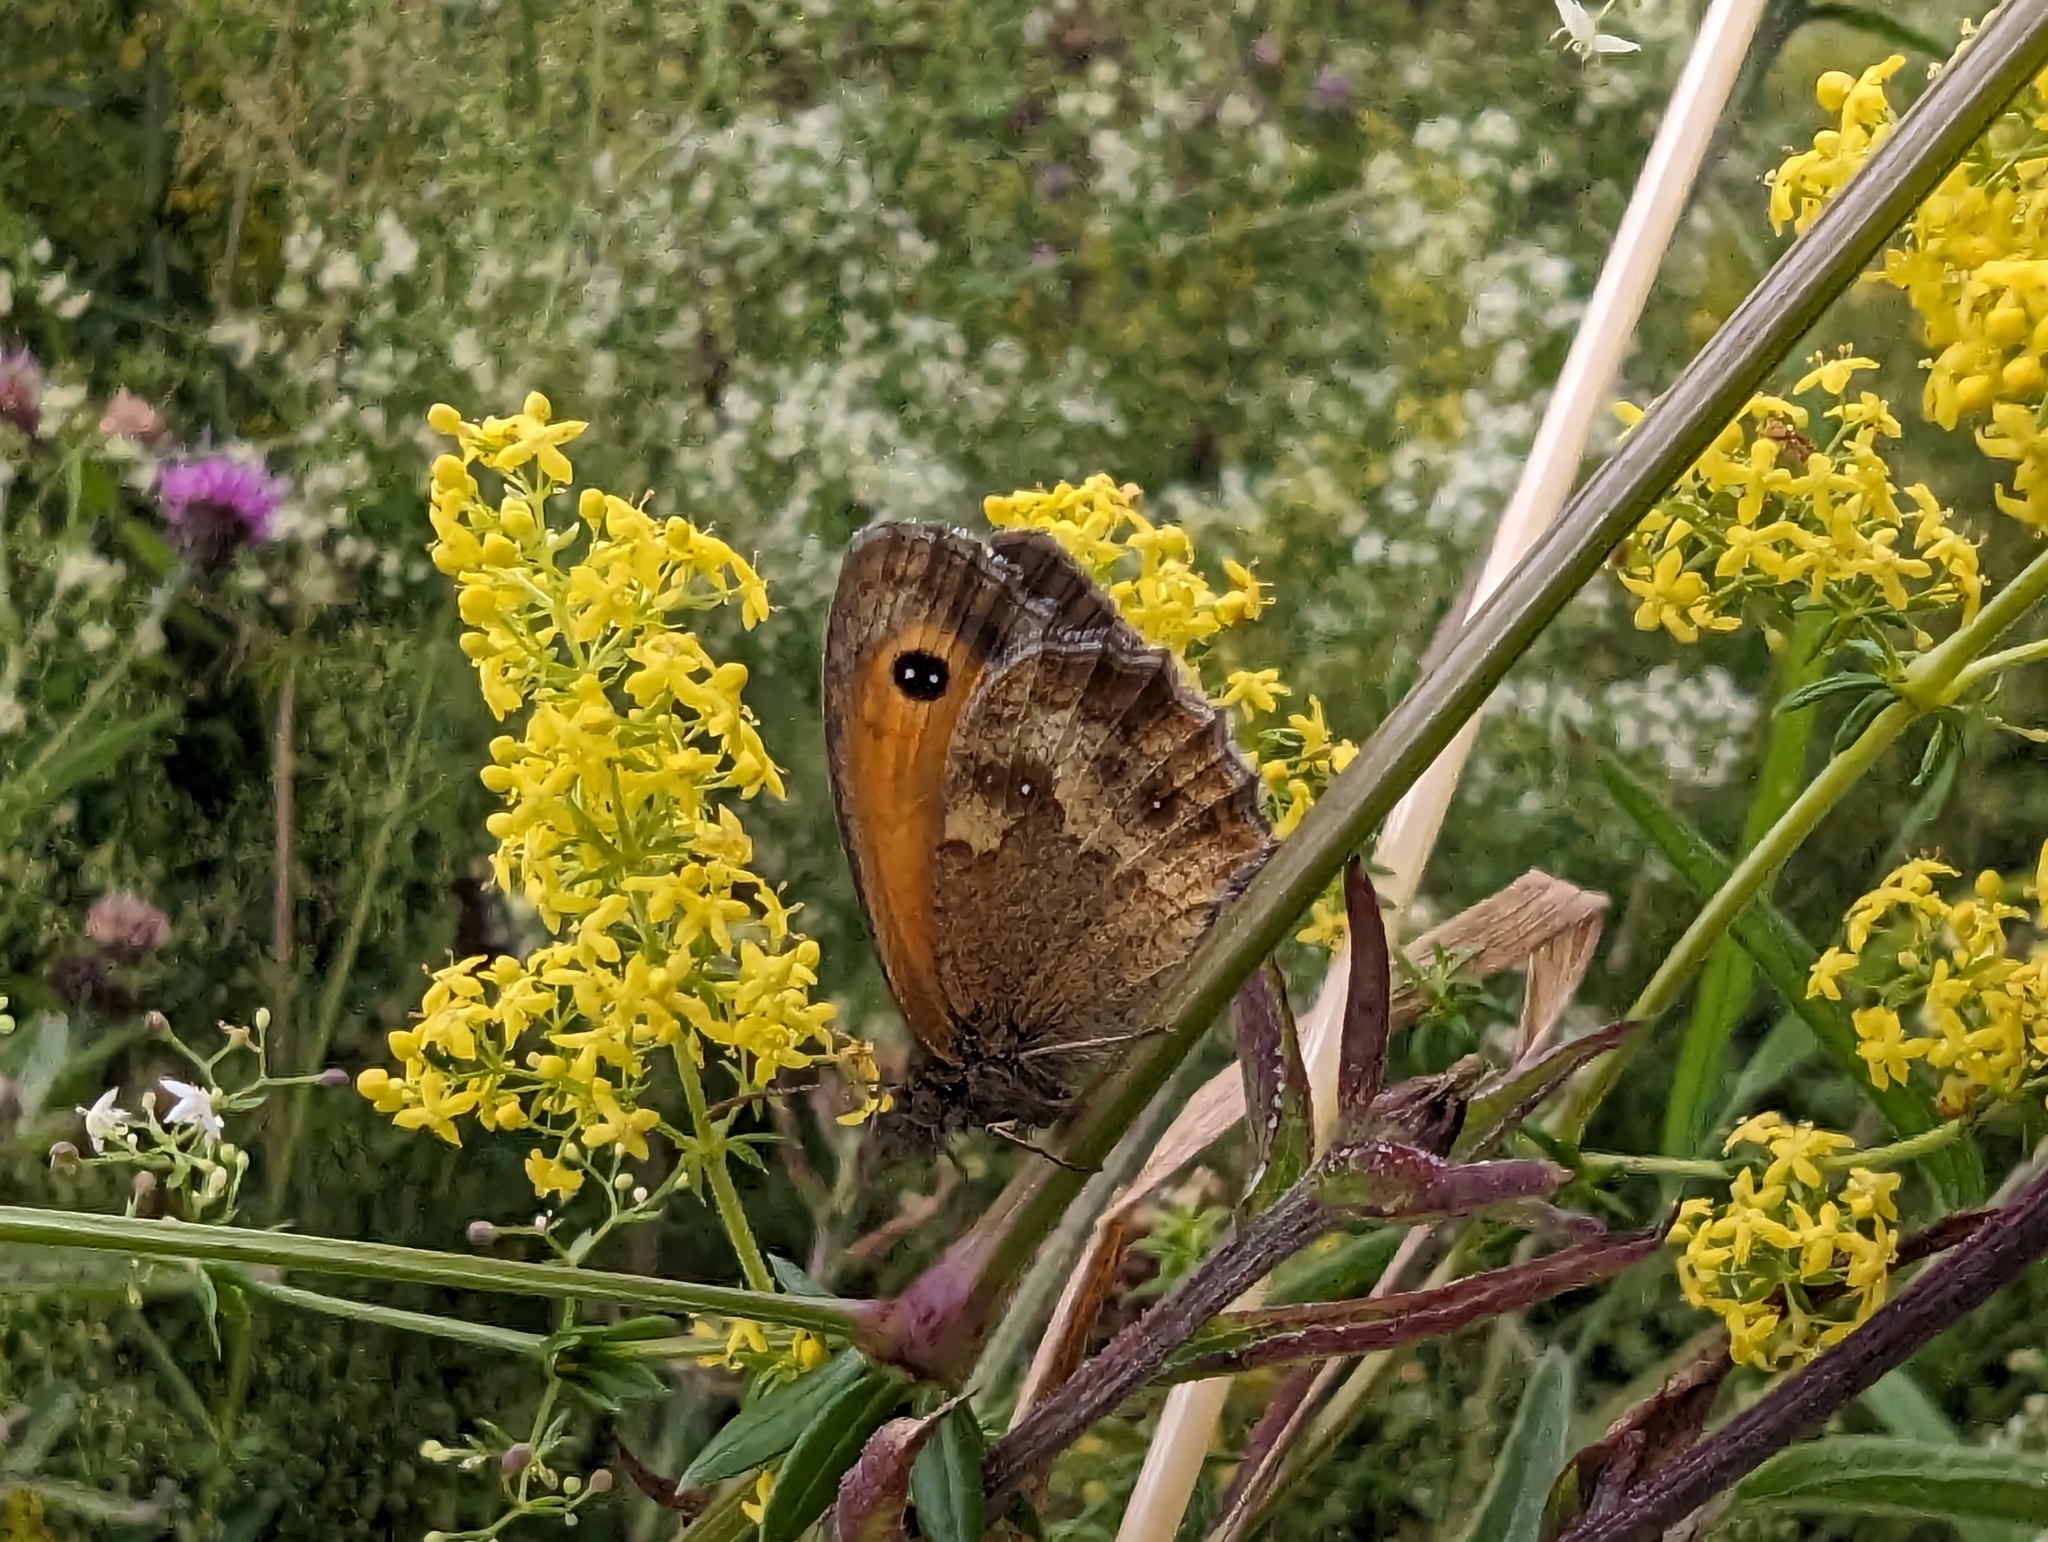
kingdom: Animalia
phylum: Arthropoda
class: Insecta
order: Lepidoptera
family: Nymphalidae
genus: Pyronia
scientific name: Pyronia tithonus
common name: Gatekeeper
